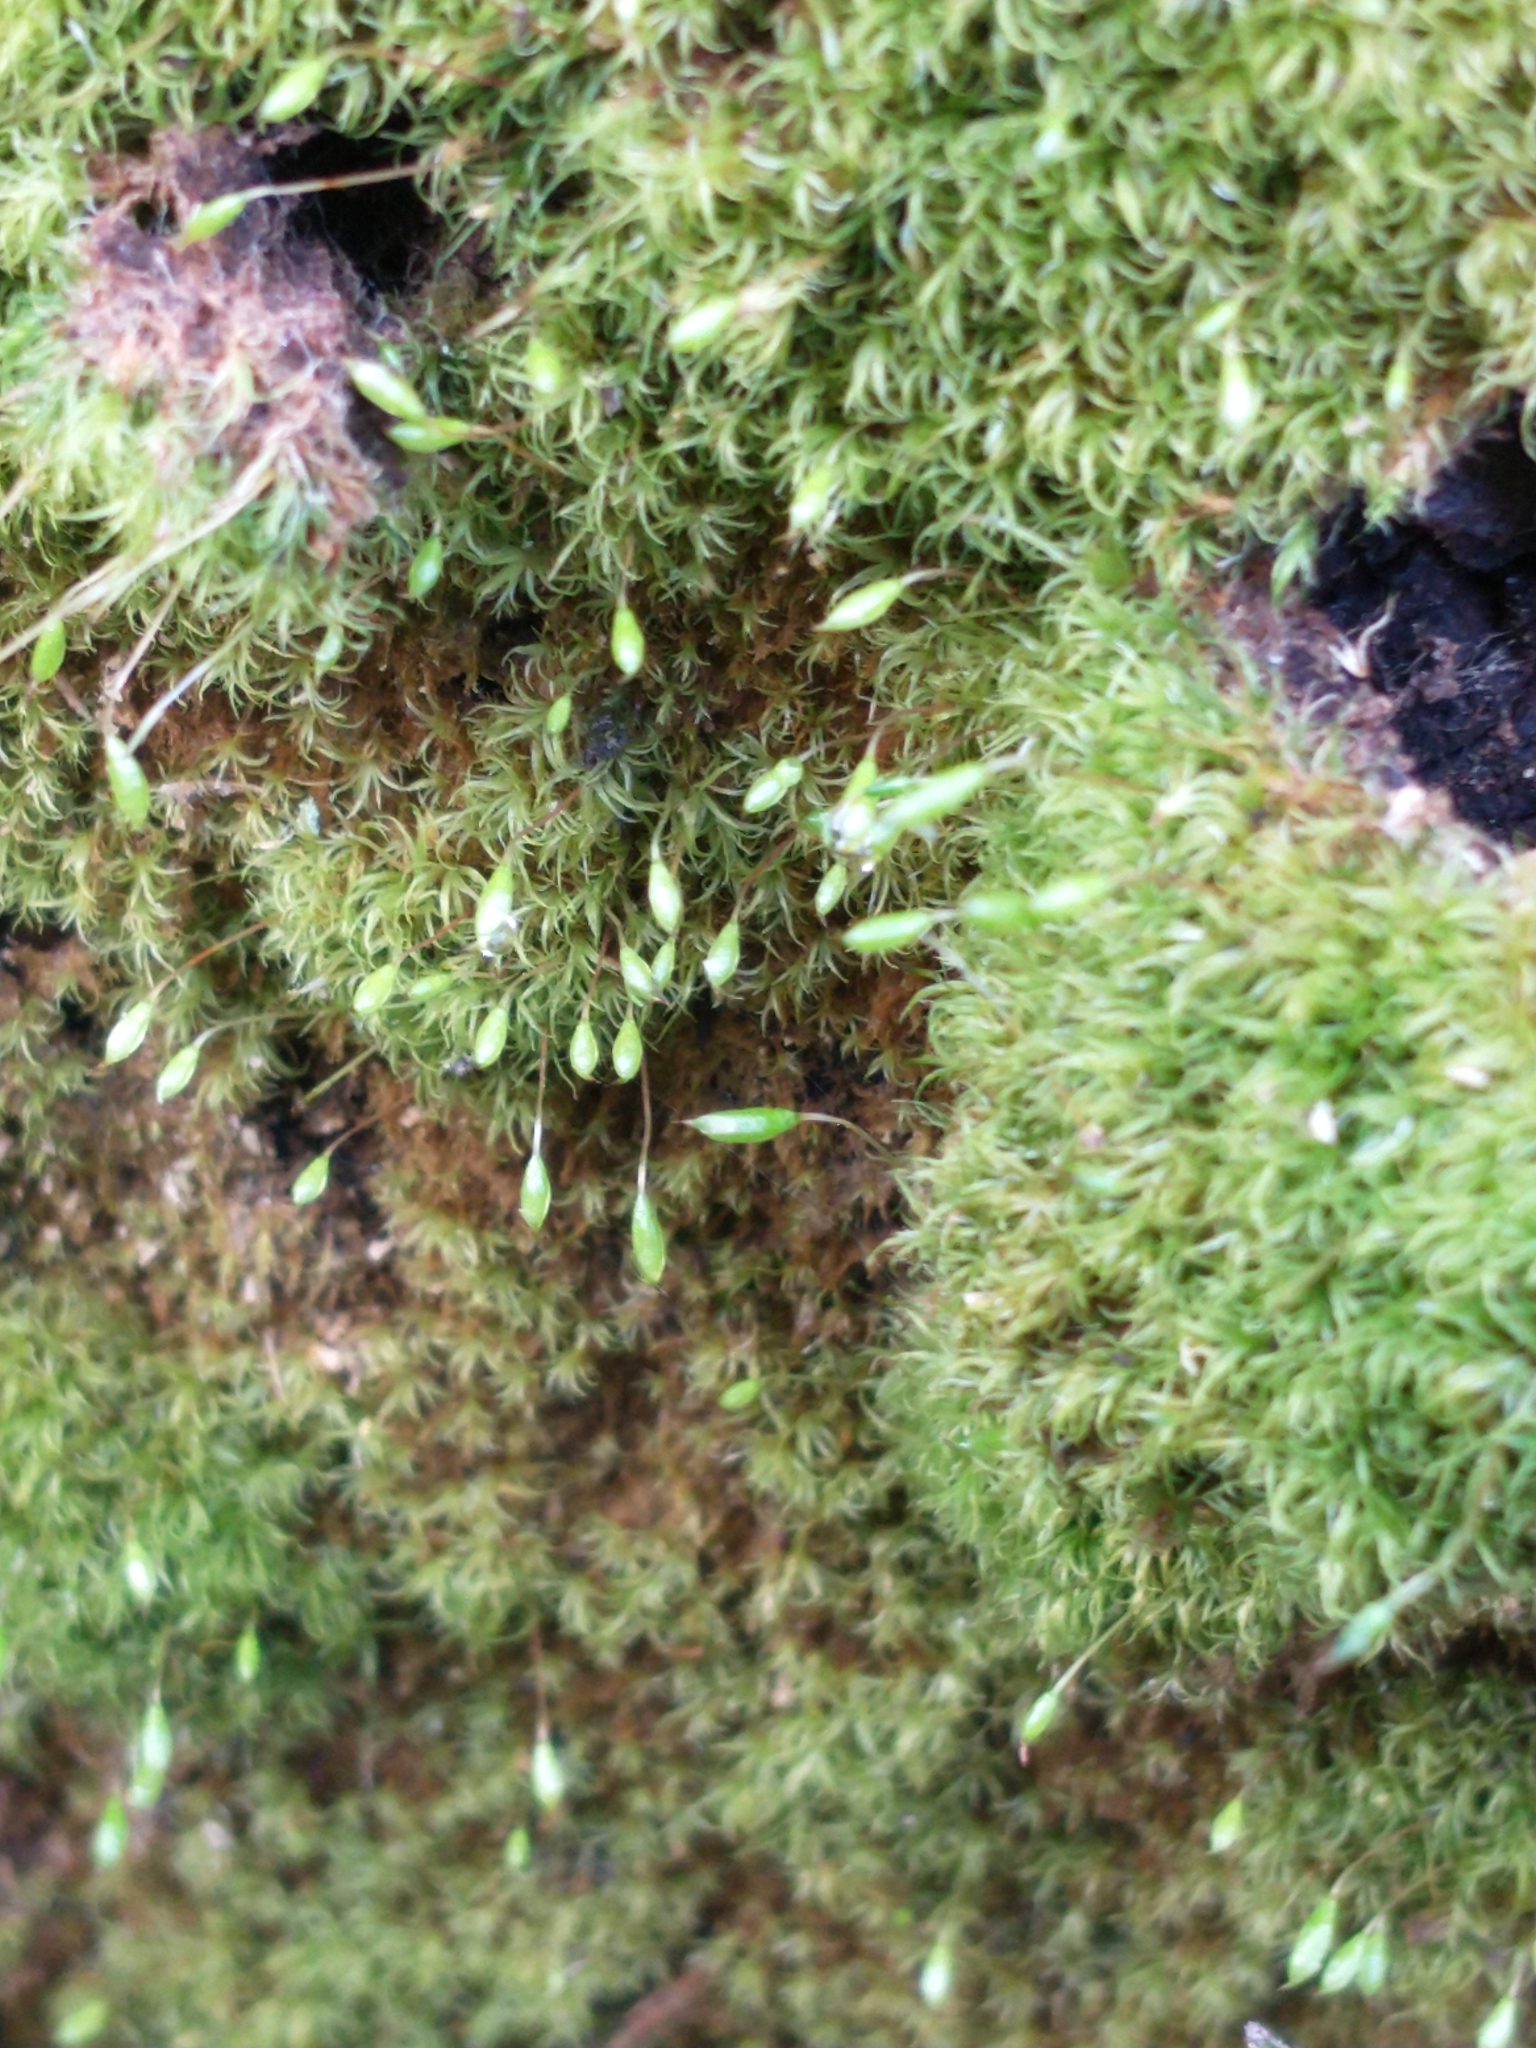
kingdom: Plantae
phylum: Bryophyta
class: Bryopsida
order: Orthodontiales
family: Orthodontiaceae
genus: Orthodontium
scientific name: Orthodontium lineare
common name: Cape thread-moss
